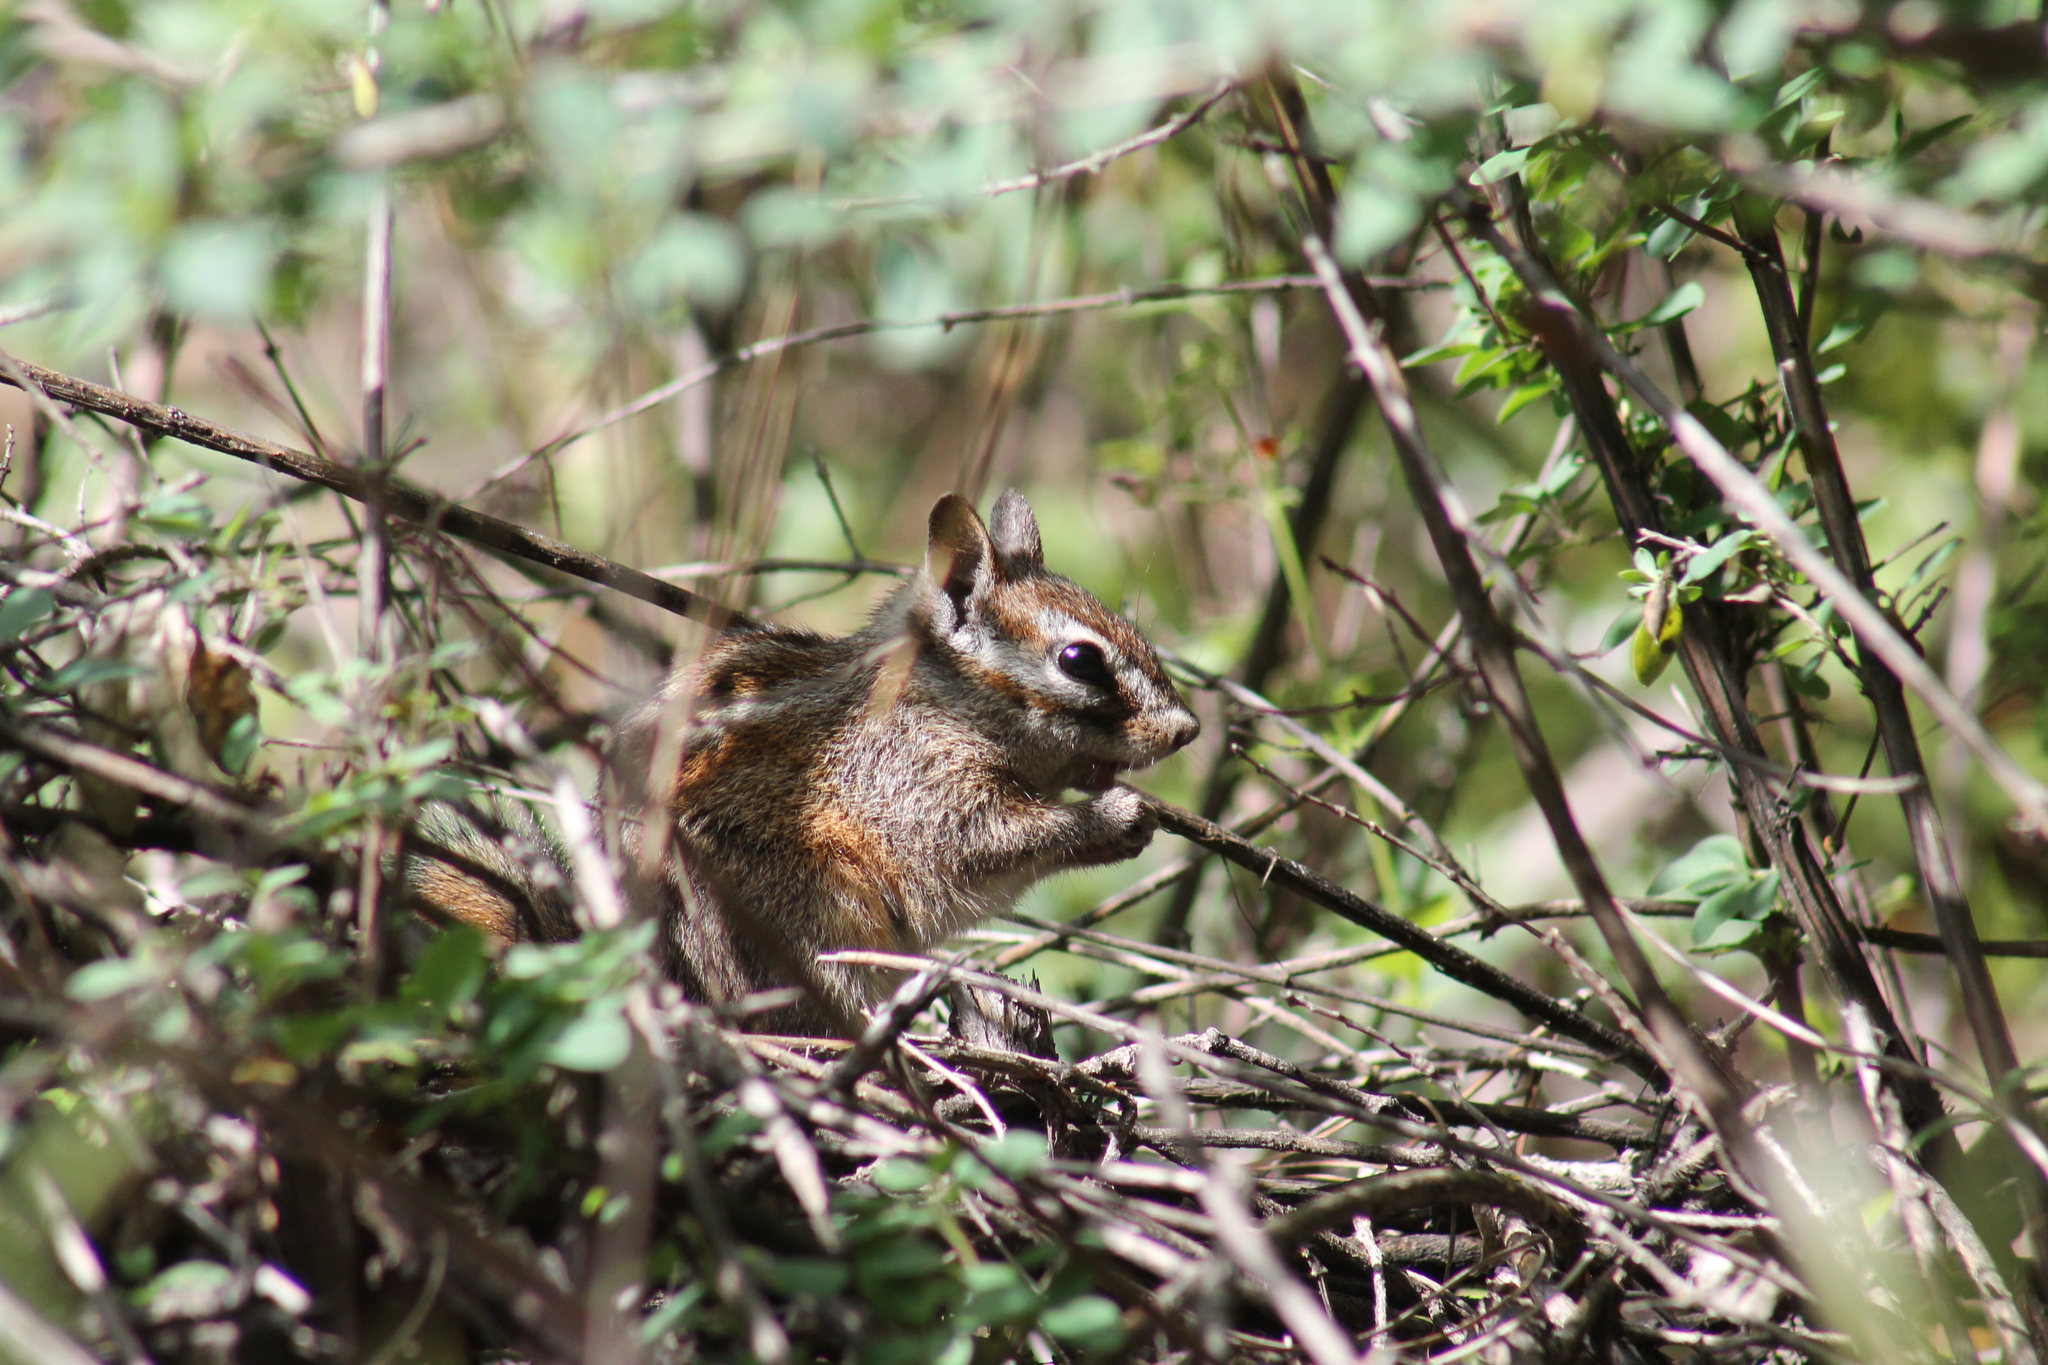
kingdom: Animalia
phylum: Chordata
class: Mammalia
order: Rodentia
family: Sciuridae
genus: Tamias
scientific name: Tamias merriami
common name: Merriam's chipmunk
